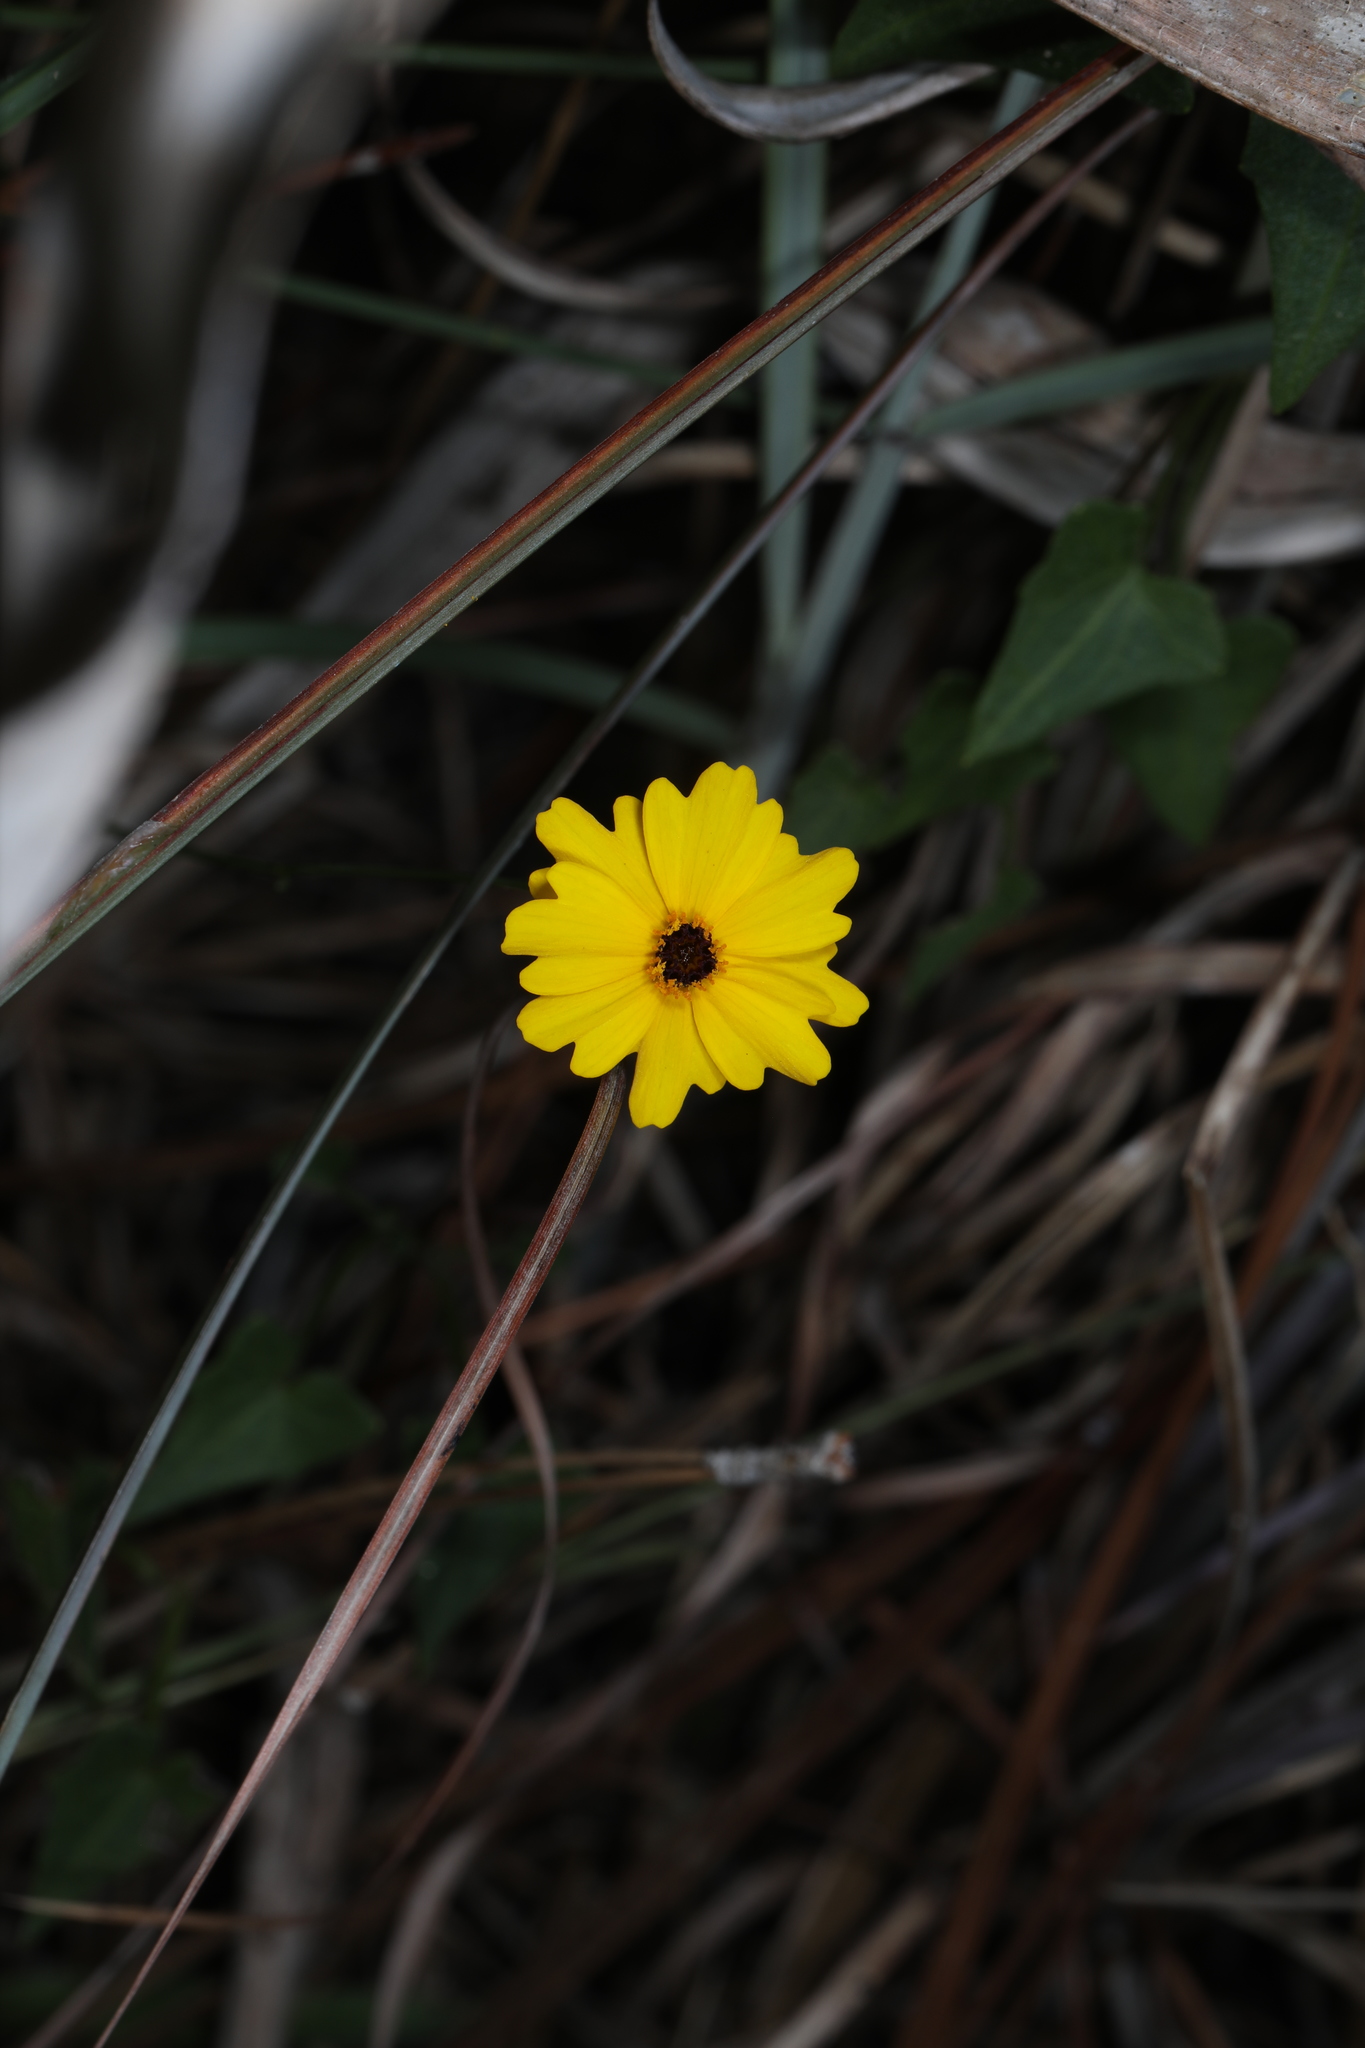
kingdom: Plantae
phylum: Tracheophyta
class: Magnoliopsida
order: Asterales
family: Asteraceae
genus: Coreopsis
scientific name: Coreopsis leavenworthii
